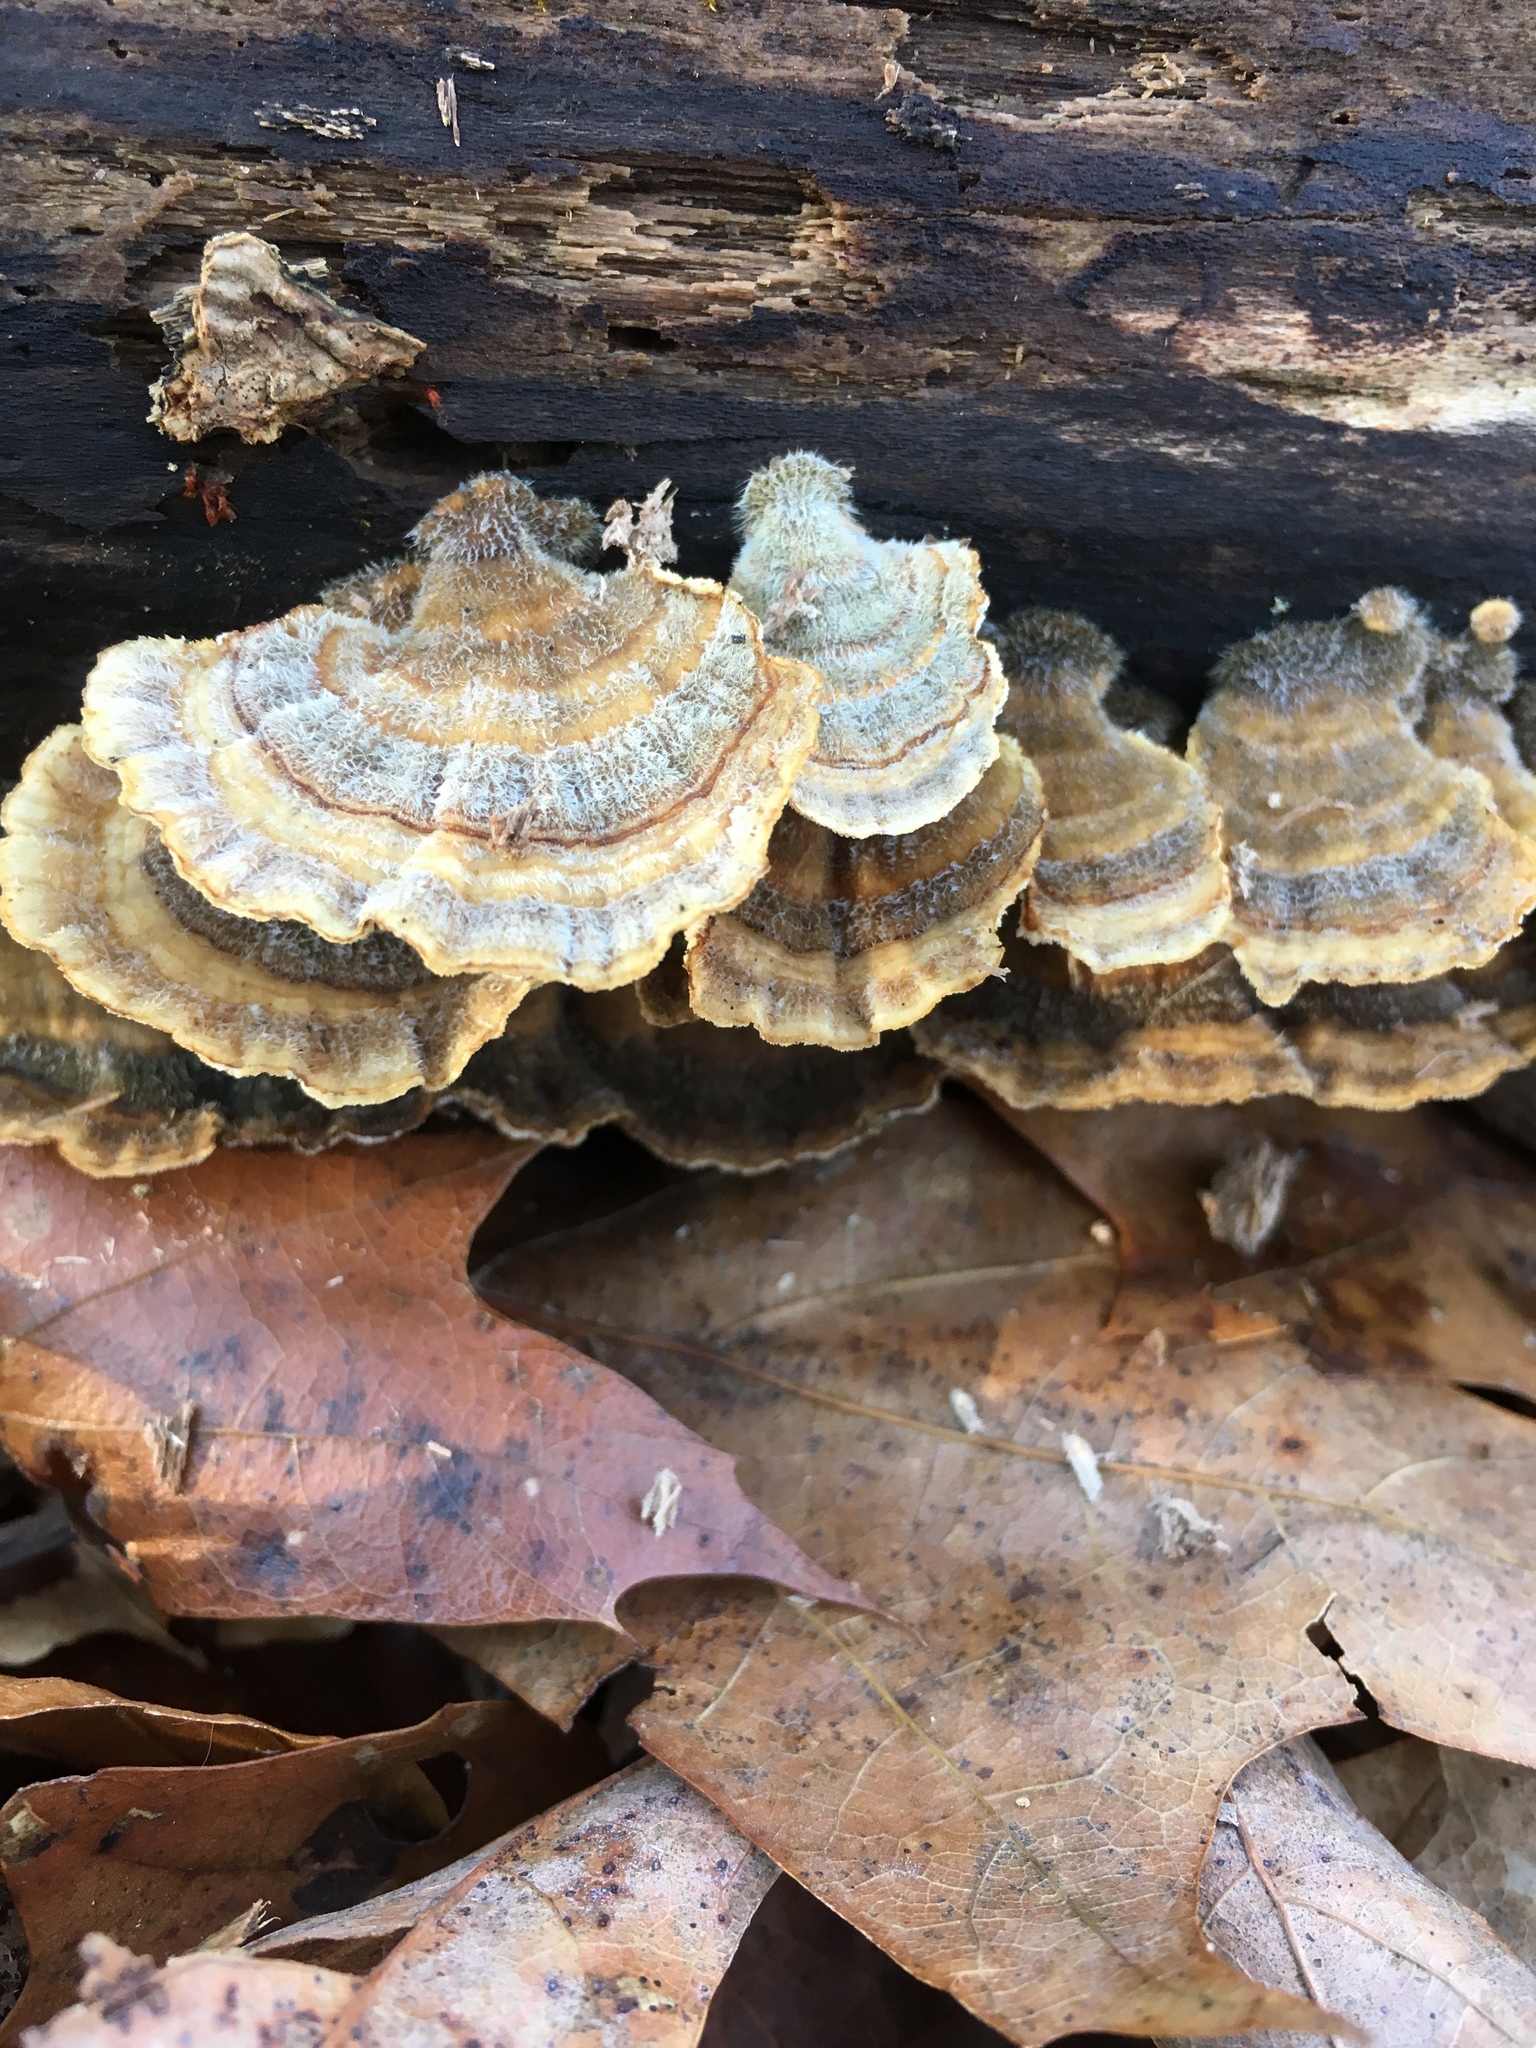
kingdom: Fungi
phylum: Basidiomycota
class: Agaricomycetes
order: Polyporales
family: Polyporaceae
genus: Trametes
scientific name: Trametes versicolor
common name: Turkeytail
